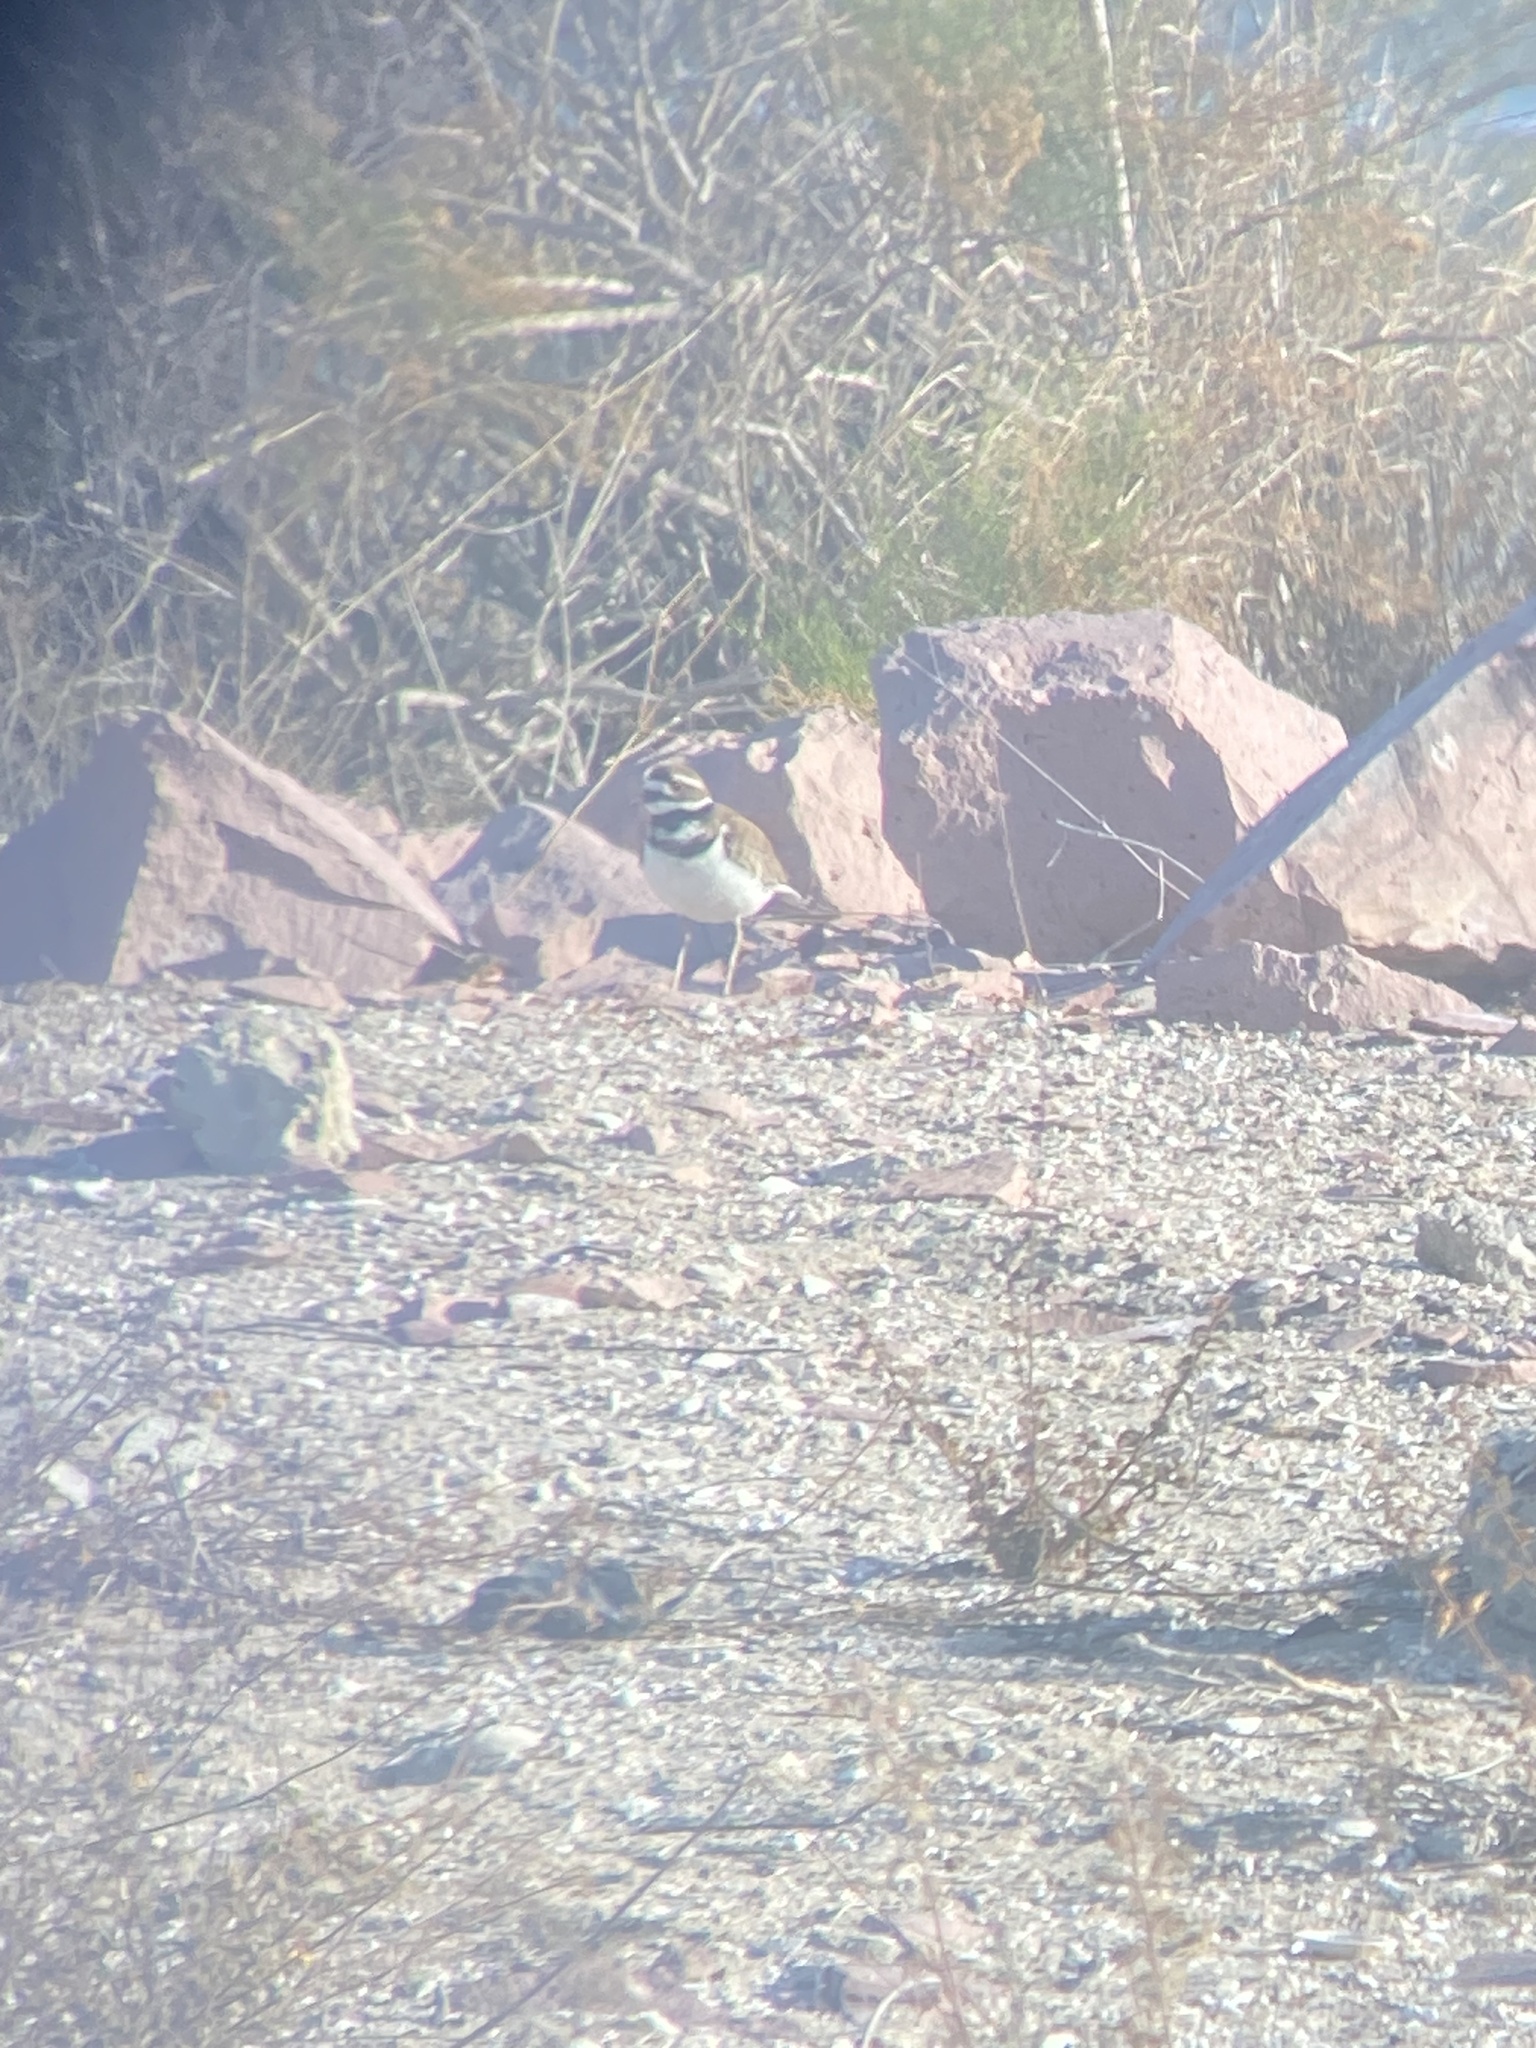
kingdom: Animalia
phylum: Chordata
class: Aves
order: Charadriiformes
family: Charadriidae
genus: Charadrius
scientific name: Charadrius vociferus
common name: Killdeer
